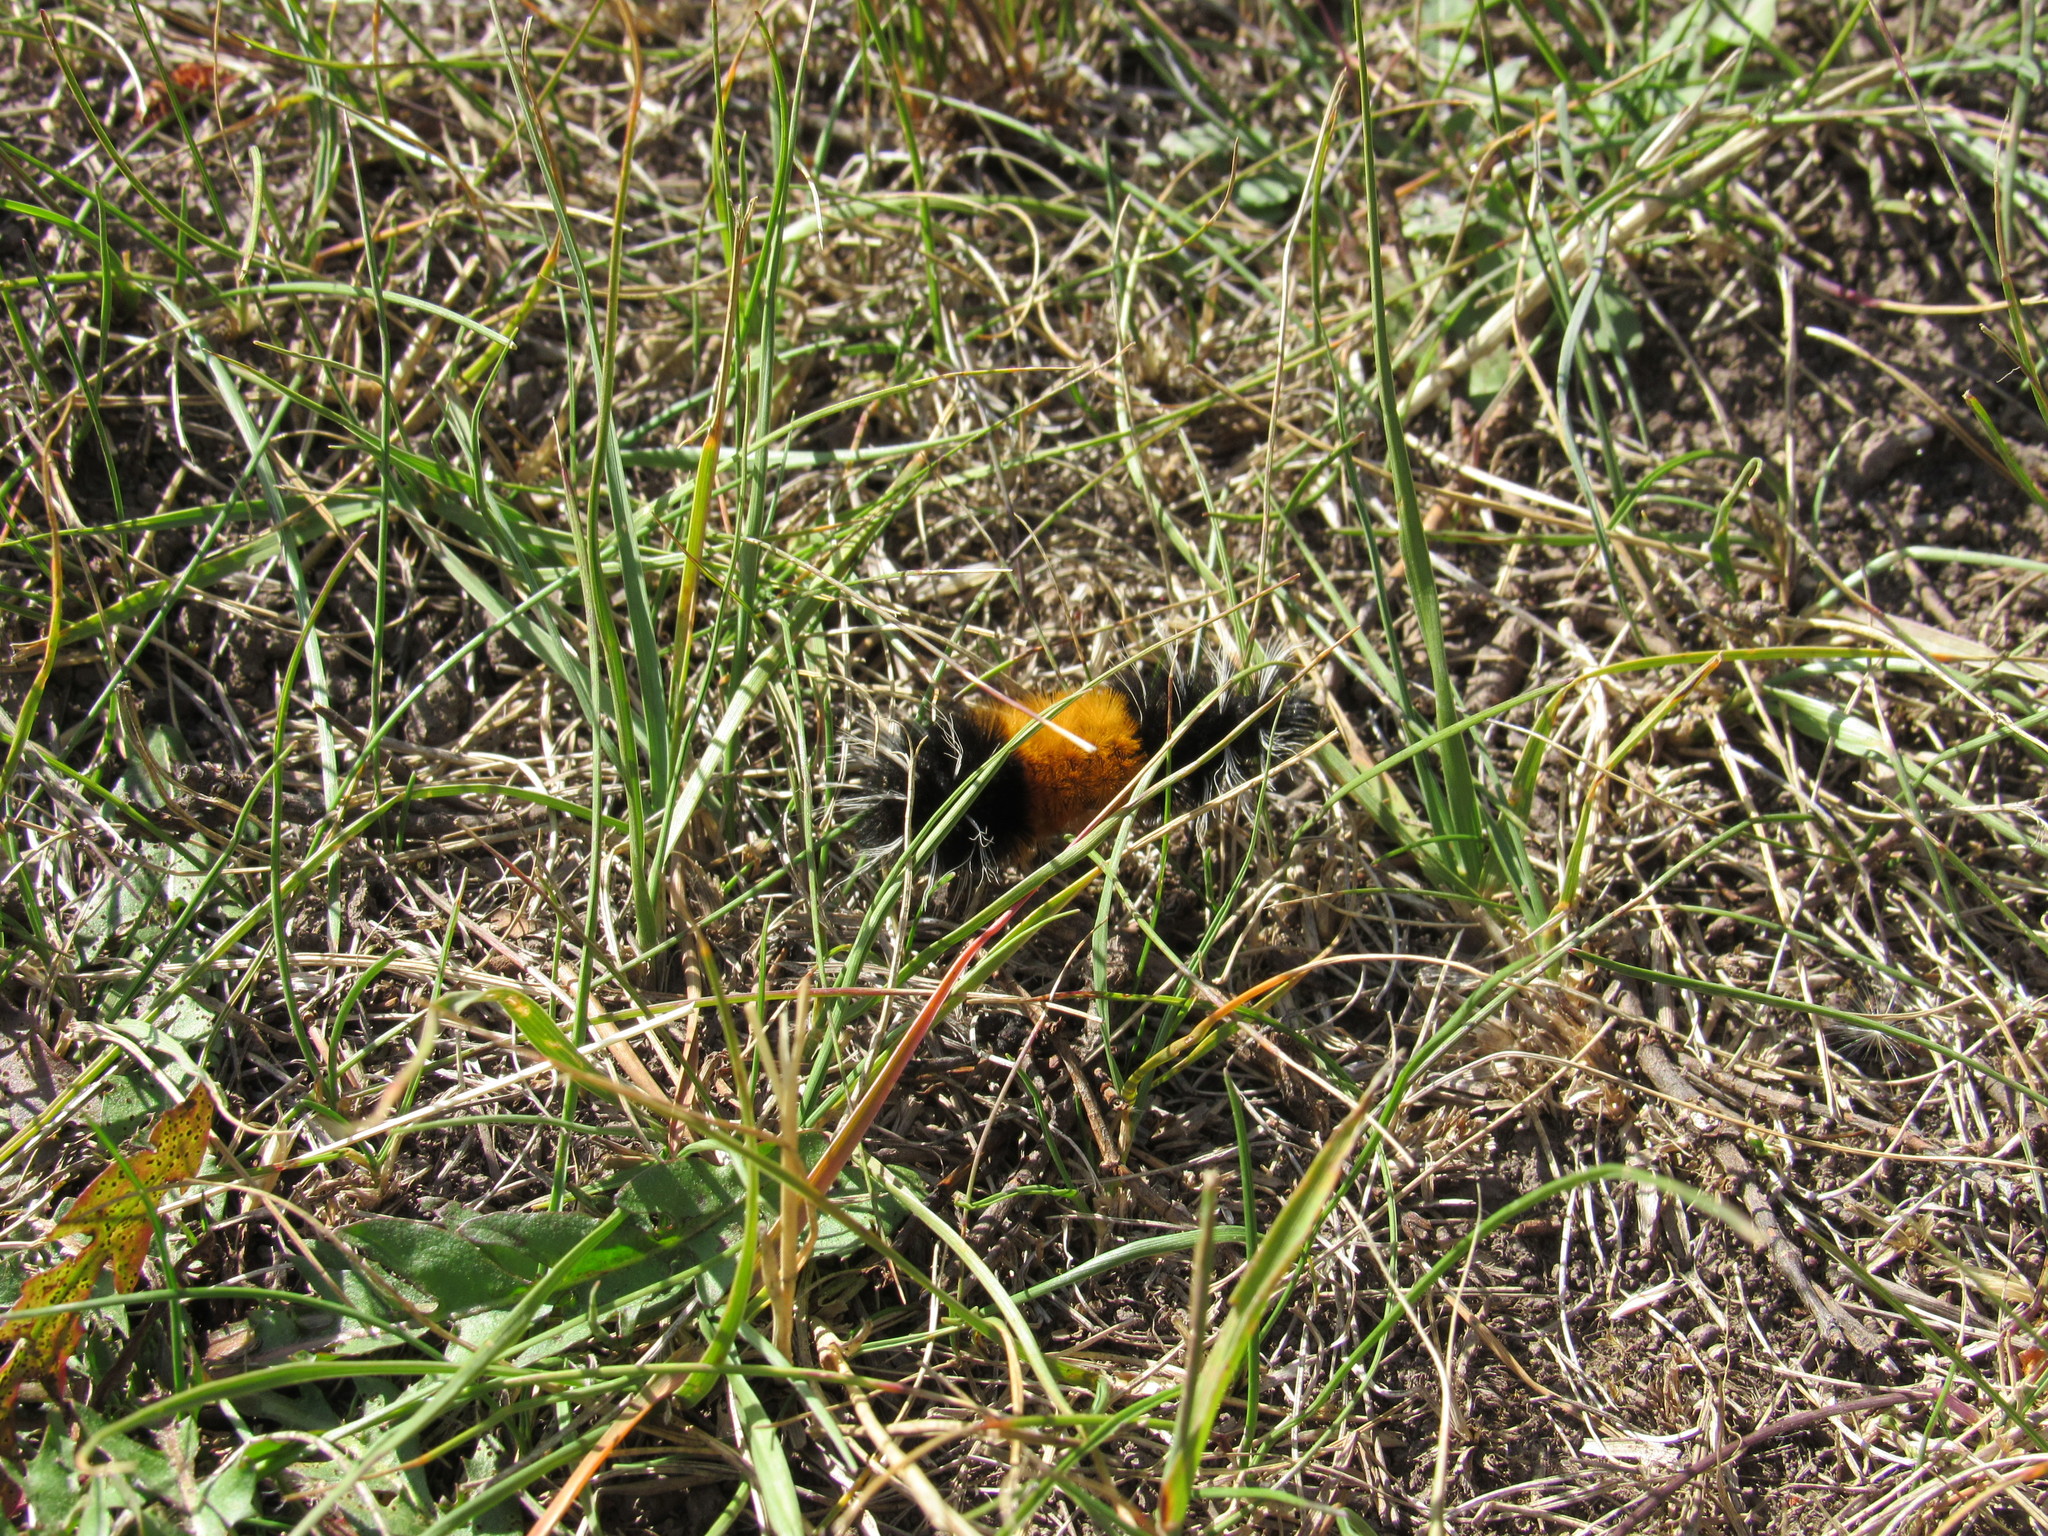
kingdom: Animalia
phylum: Arthropoda
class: Insecta
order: Lepidoptera
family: Erebidae
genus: Lophocampa
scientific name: Lophocampa maculata
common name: Spotted tussock moth
